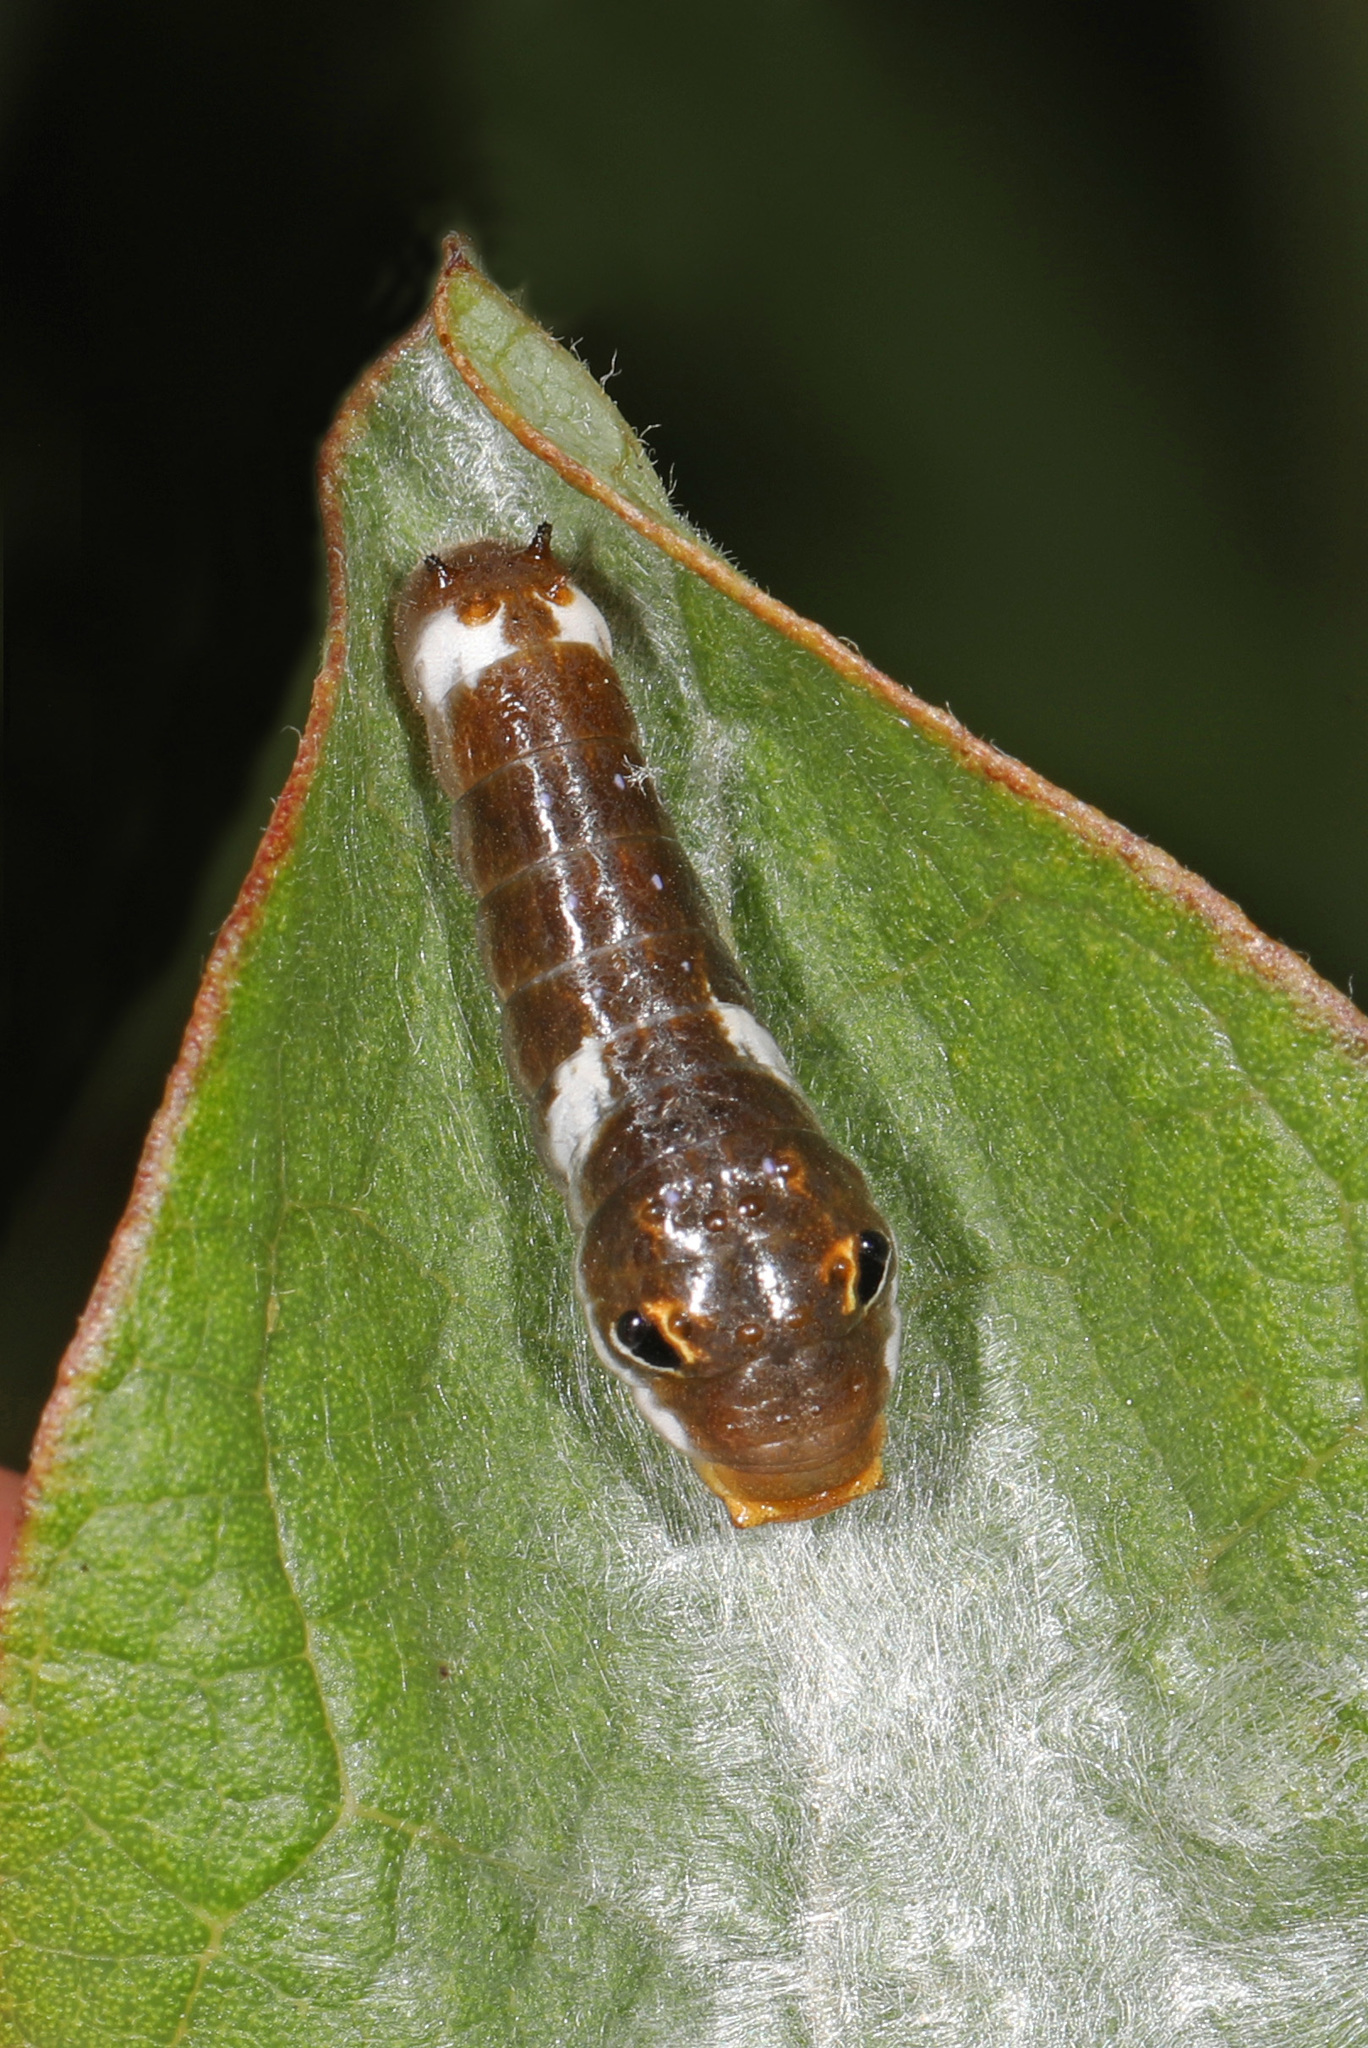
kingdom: Animalia
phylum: Arthropoda
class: Insecta
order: Lepidoptera
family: Papilionidae
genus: Papilio
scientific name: Papilio troilus
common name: Spicebush swallowtail
